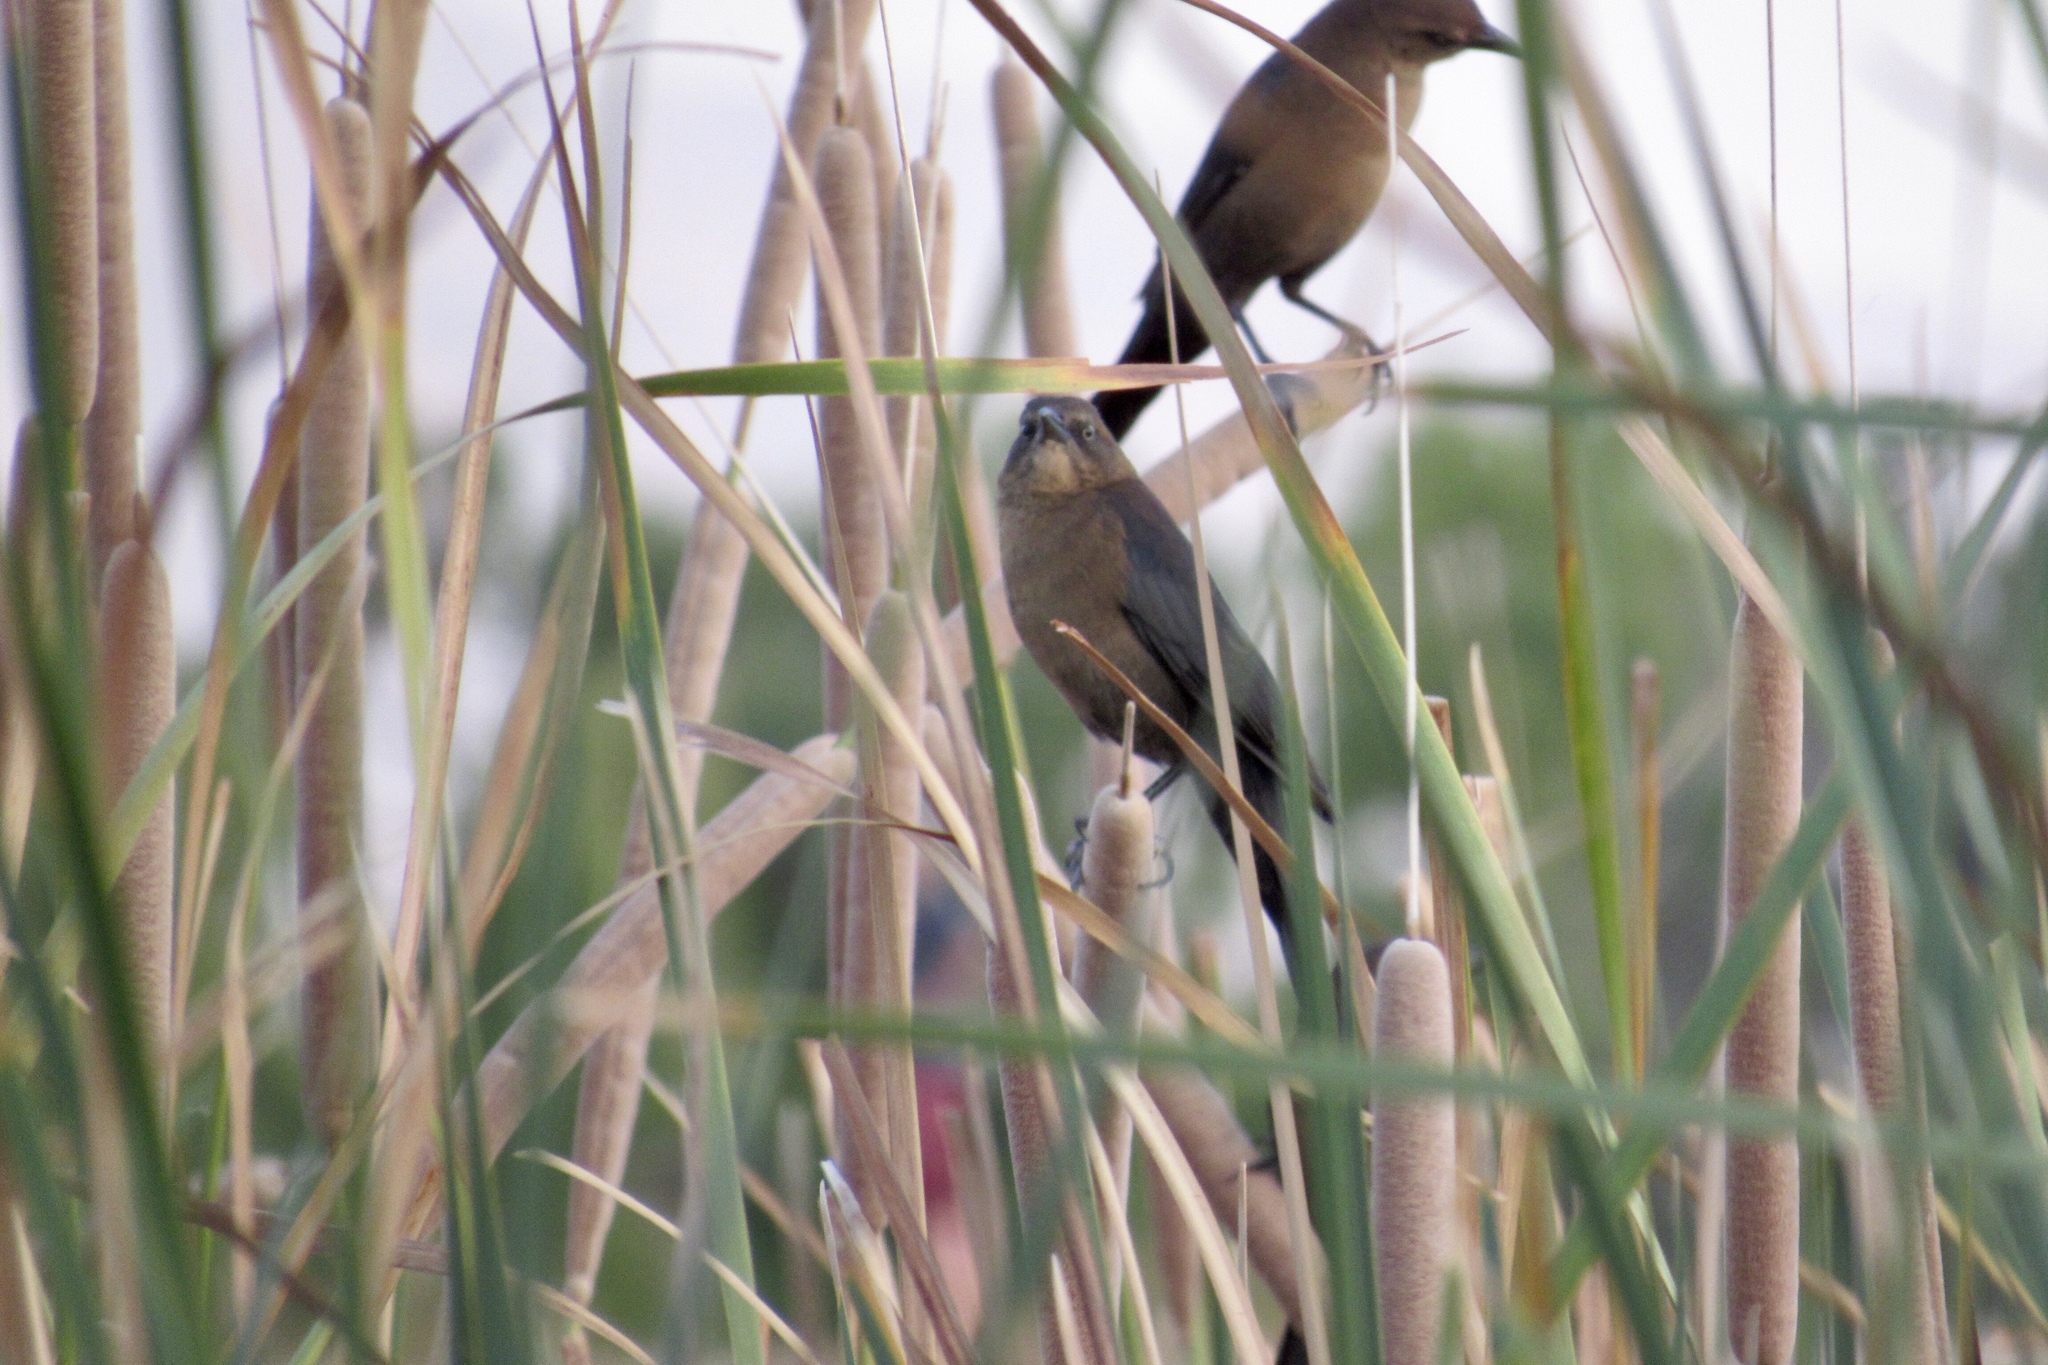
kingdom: Animalia
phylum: Chordata
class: Aves
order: Passeriformes
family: Icteridae
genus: Quiscalus
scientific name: Quiscalus mexicanus
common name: Great-tailed grackle
